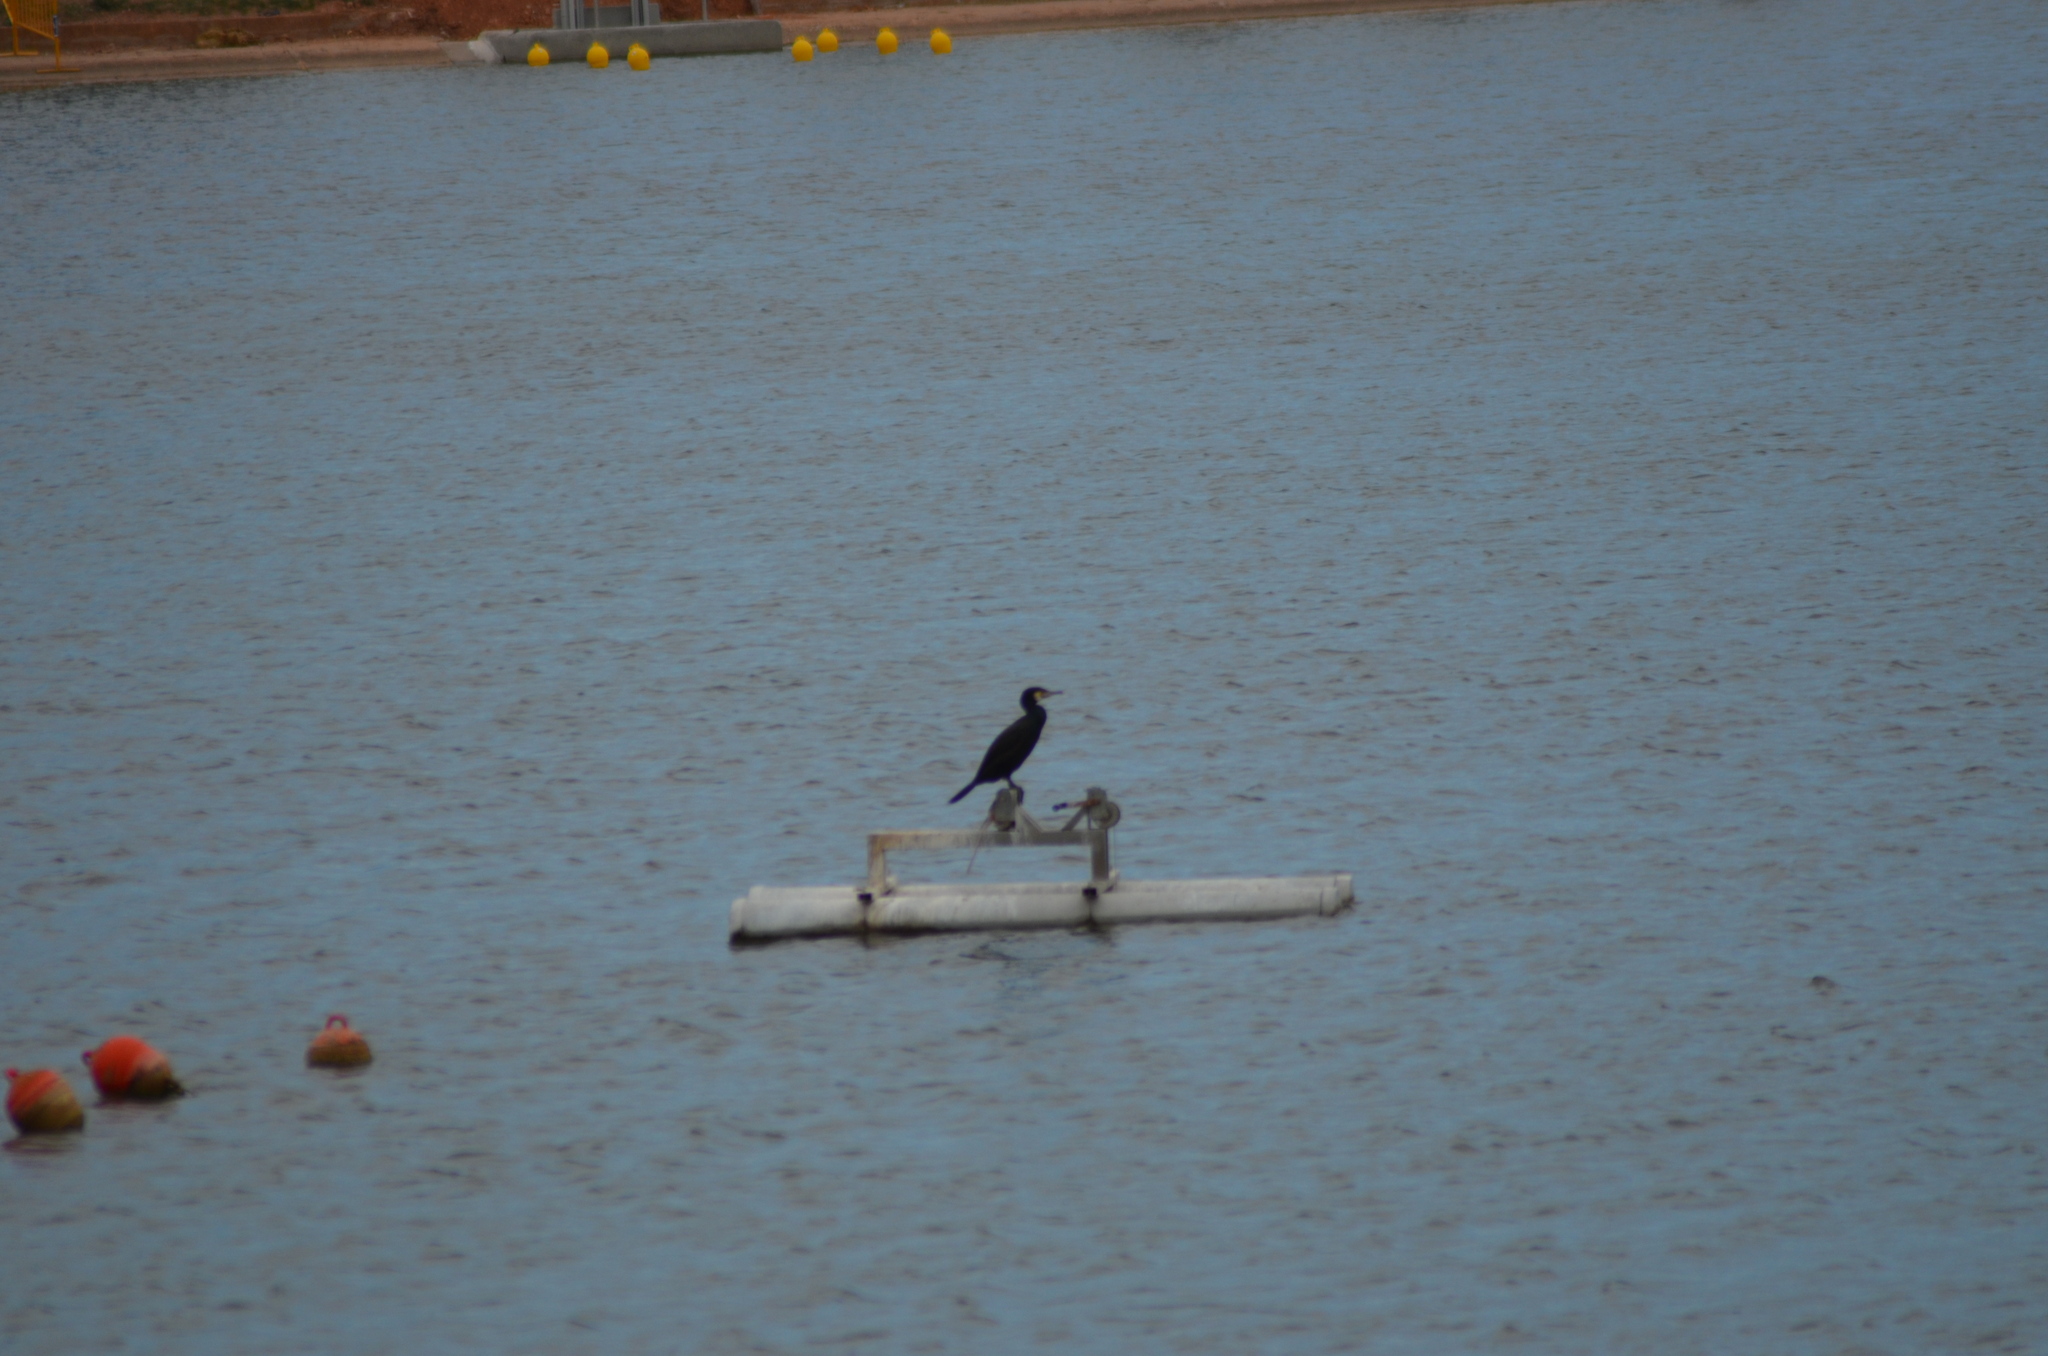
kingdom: Animalia
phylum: Chordata
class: Aves
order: Suliformes
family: Phalacrocoracidae
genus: Phalacrocorax
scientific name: Phalacrocorax carbo
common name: Great cormorant
